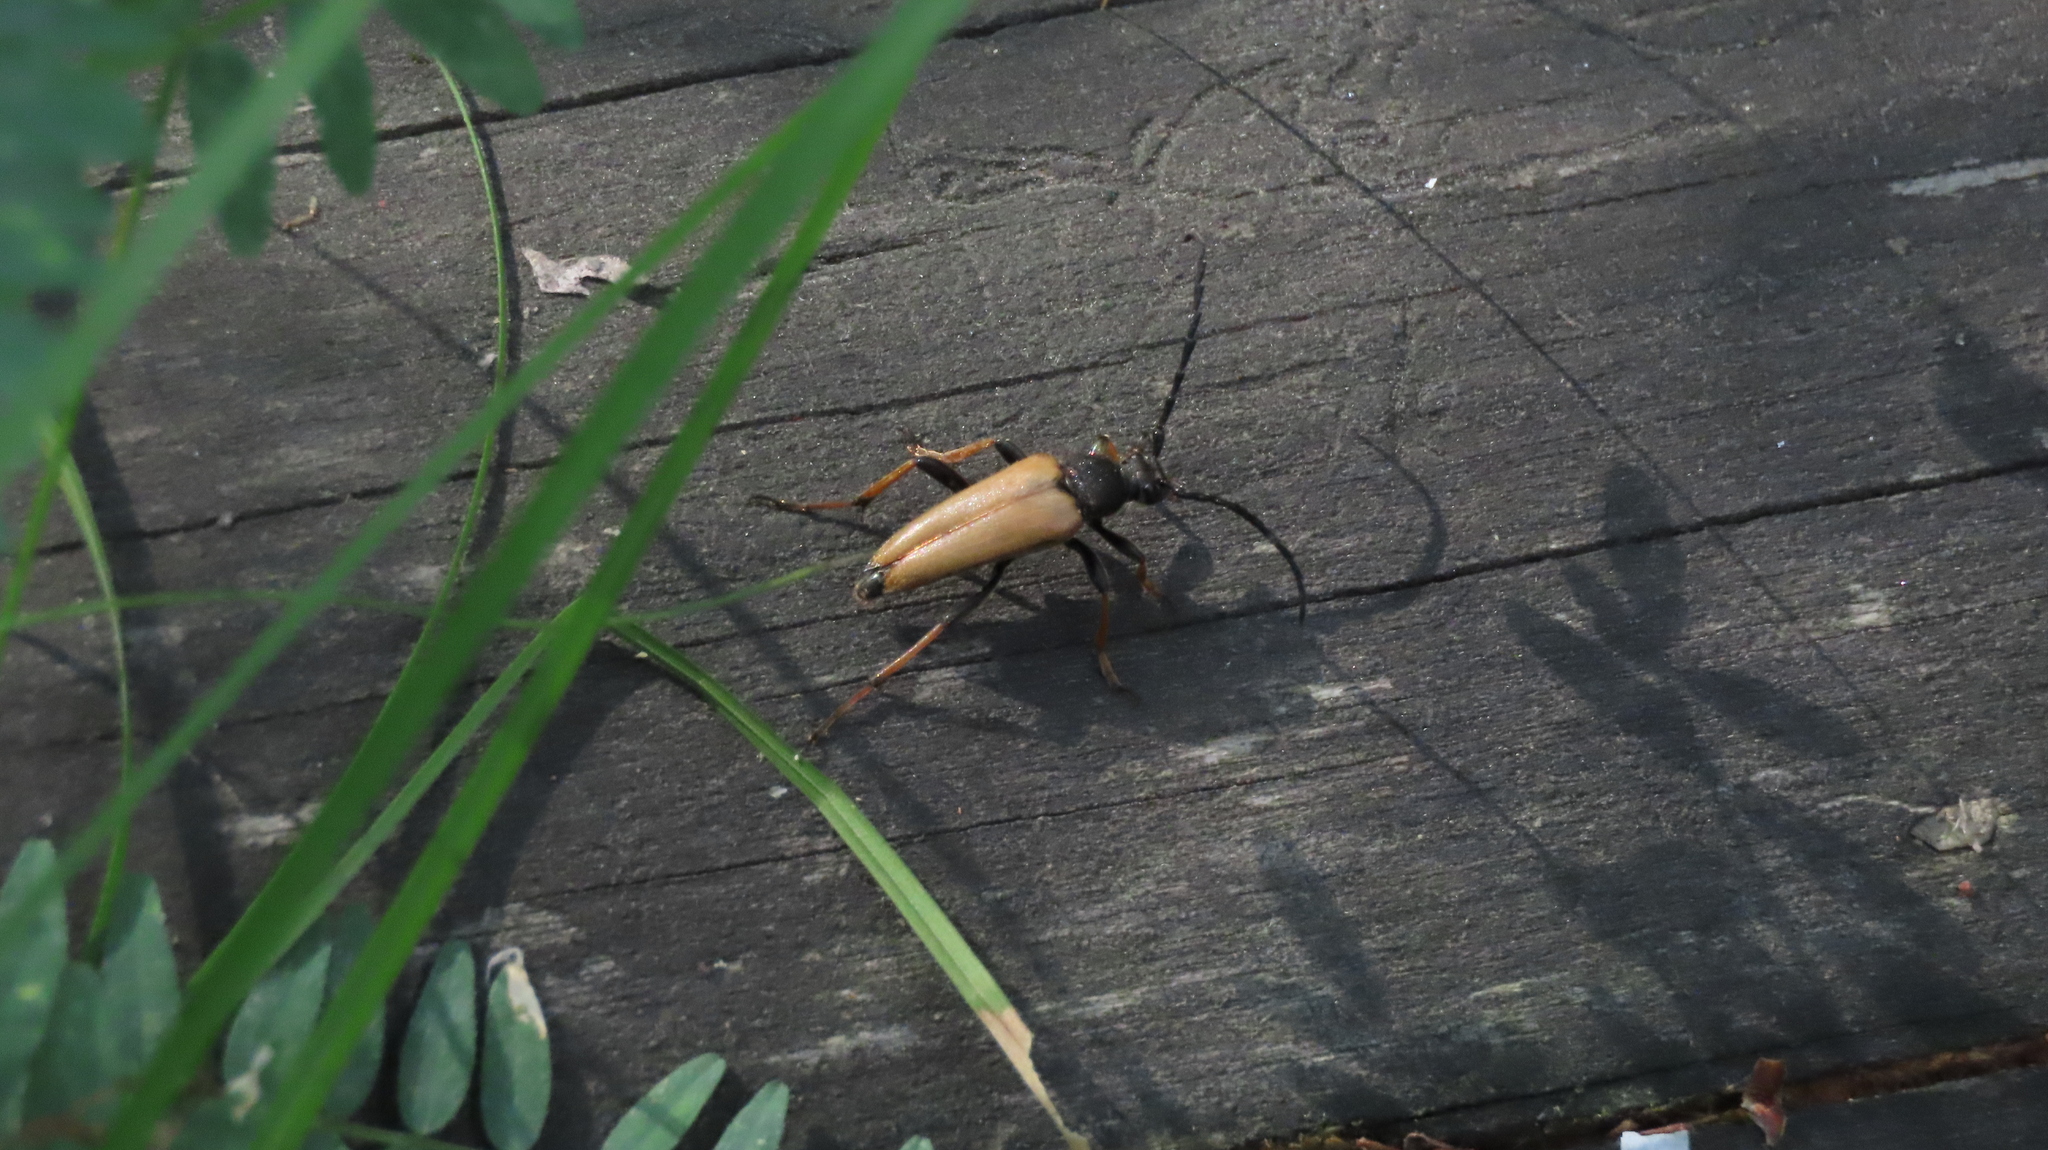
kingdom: Animalia
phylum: Arthropoda
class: Insecta
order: Coleoptera
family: Cerambycidae
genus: Stictoleptura
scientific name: Stictoleptura rubra
